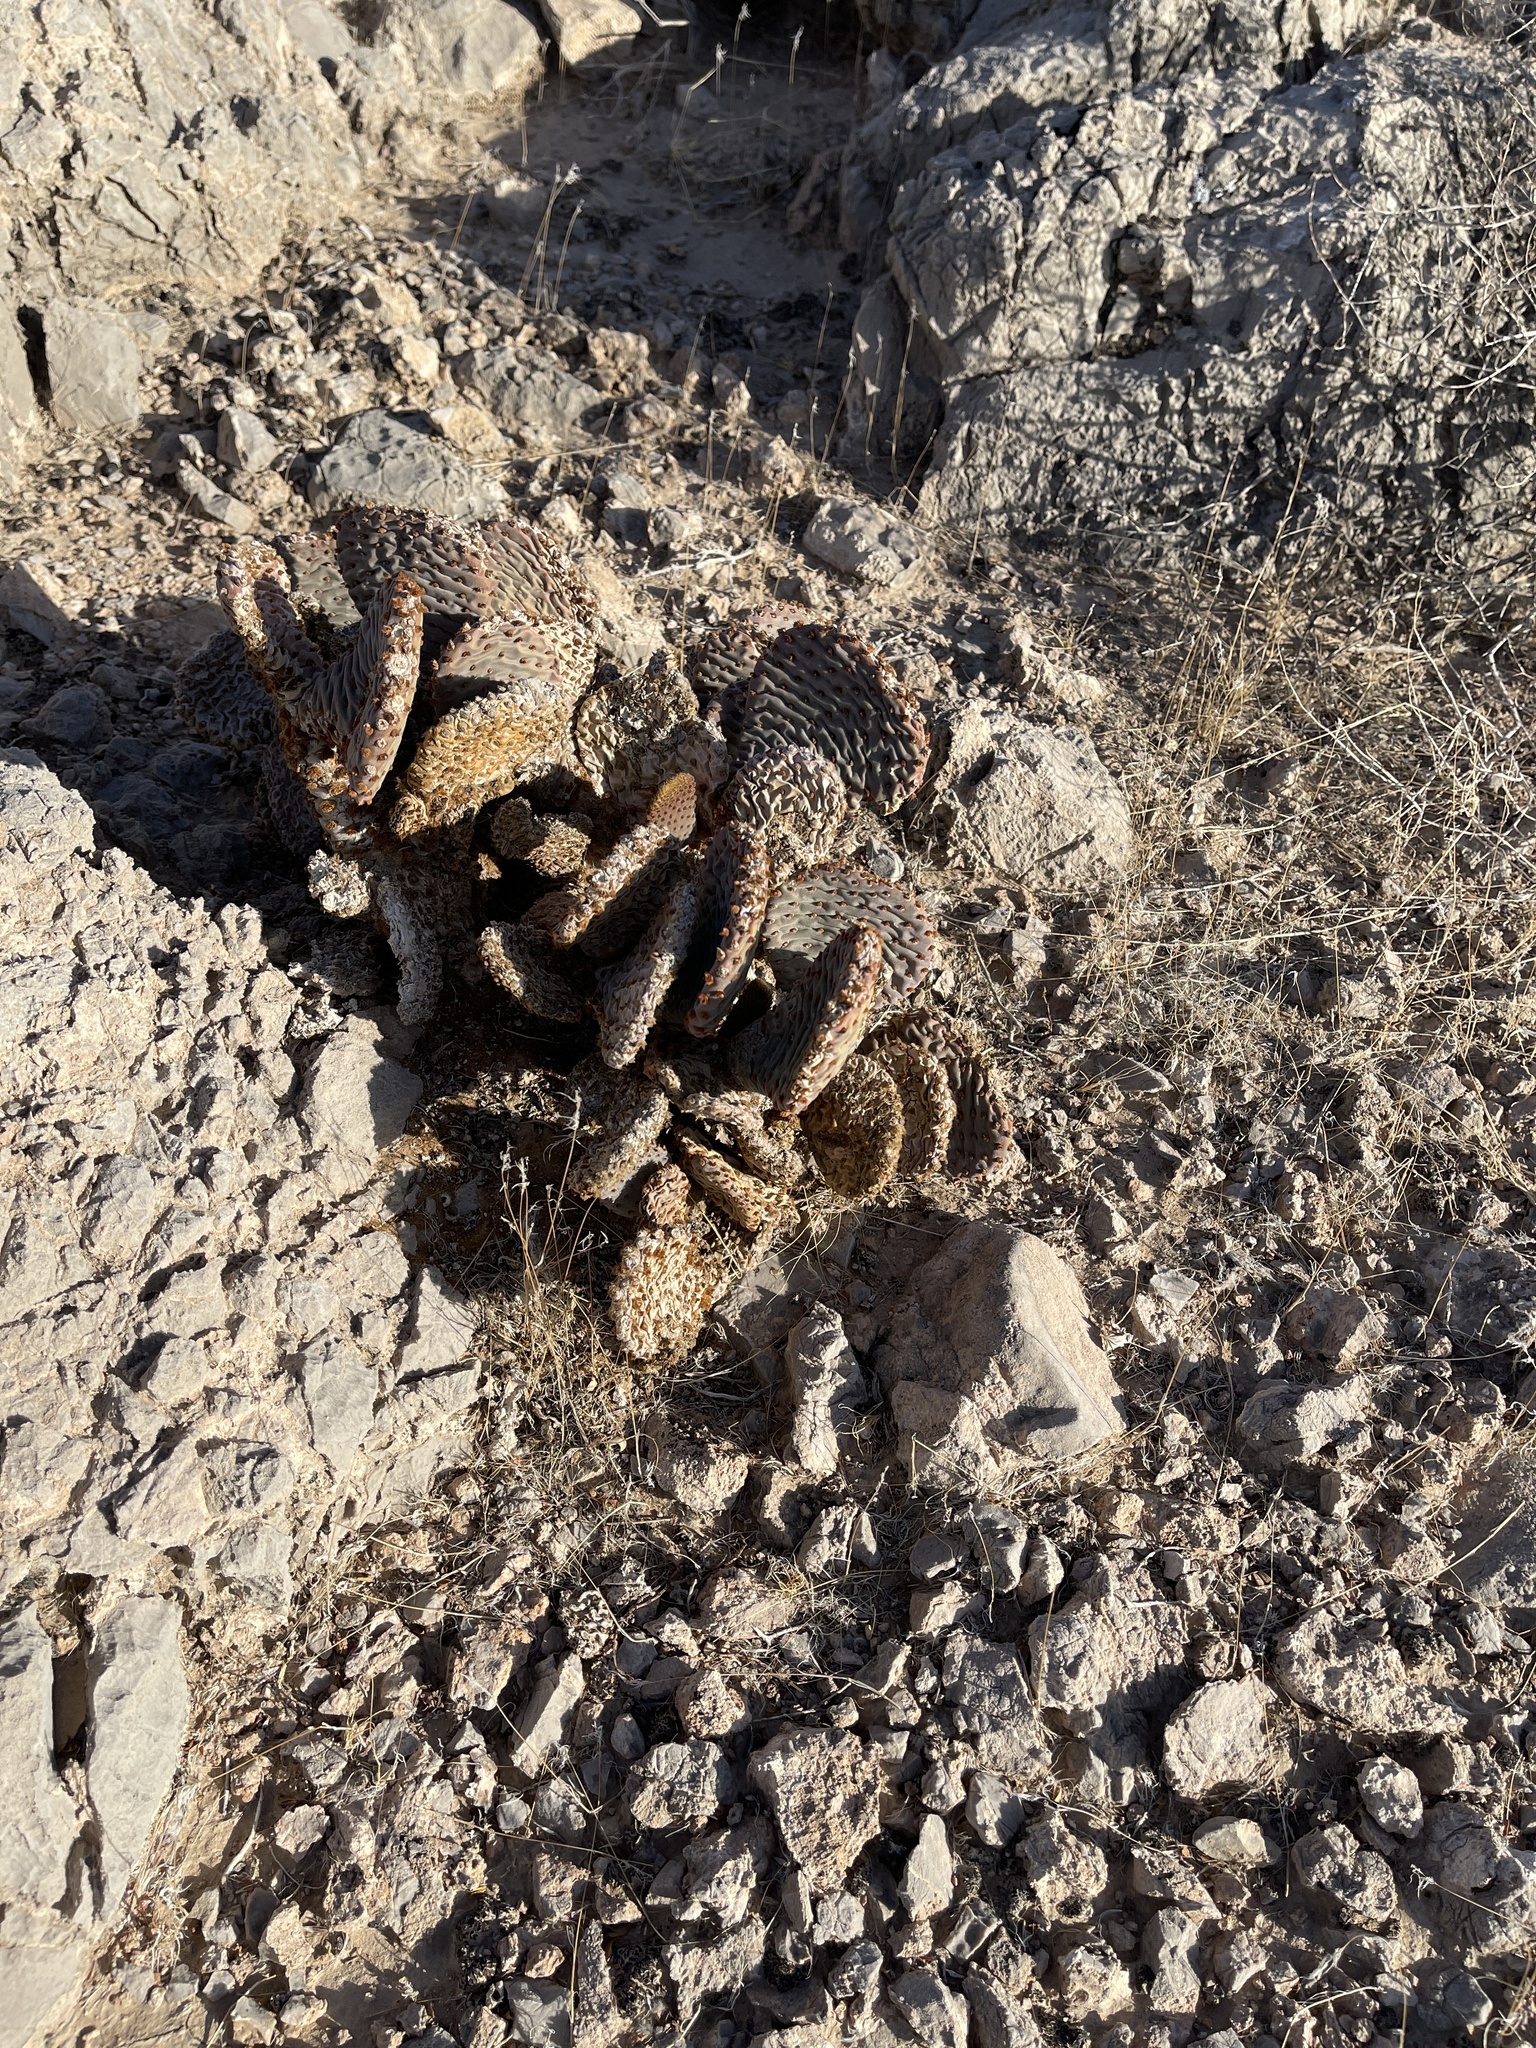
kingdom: Plantae
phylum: Tracheophyta
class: Magnoliopsida
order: Caryophyllales
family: Cactaceae
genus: Opuntia
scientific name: Opuntia basilaris
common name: Beavertail prickly-pear
